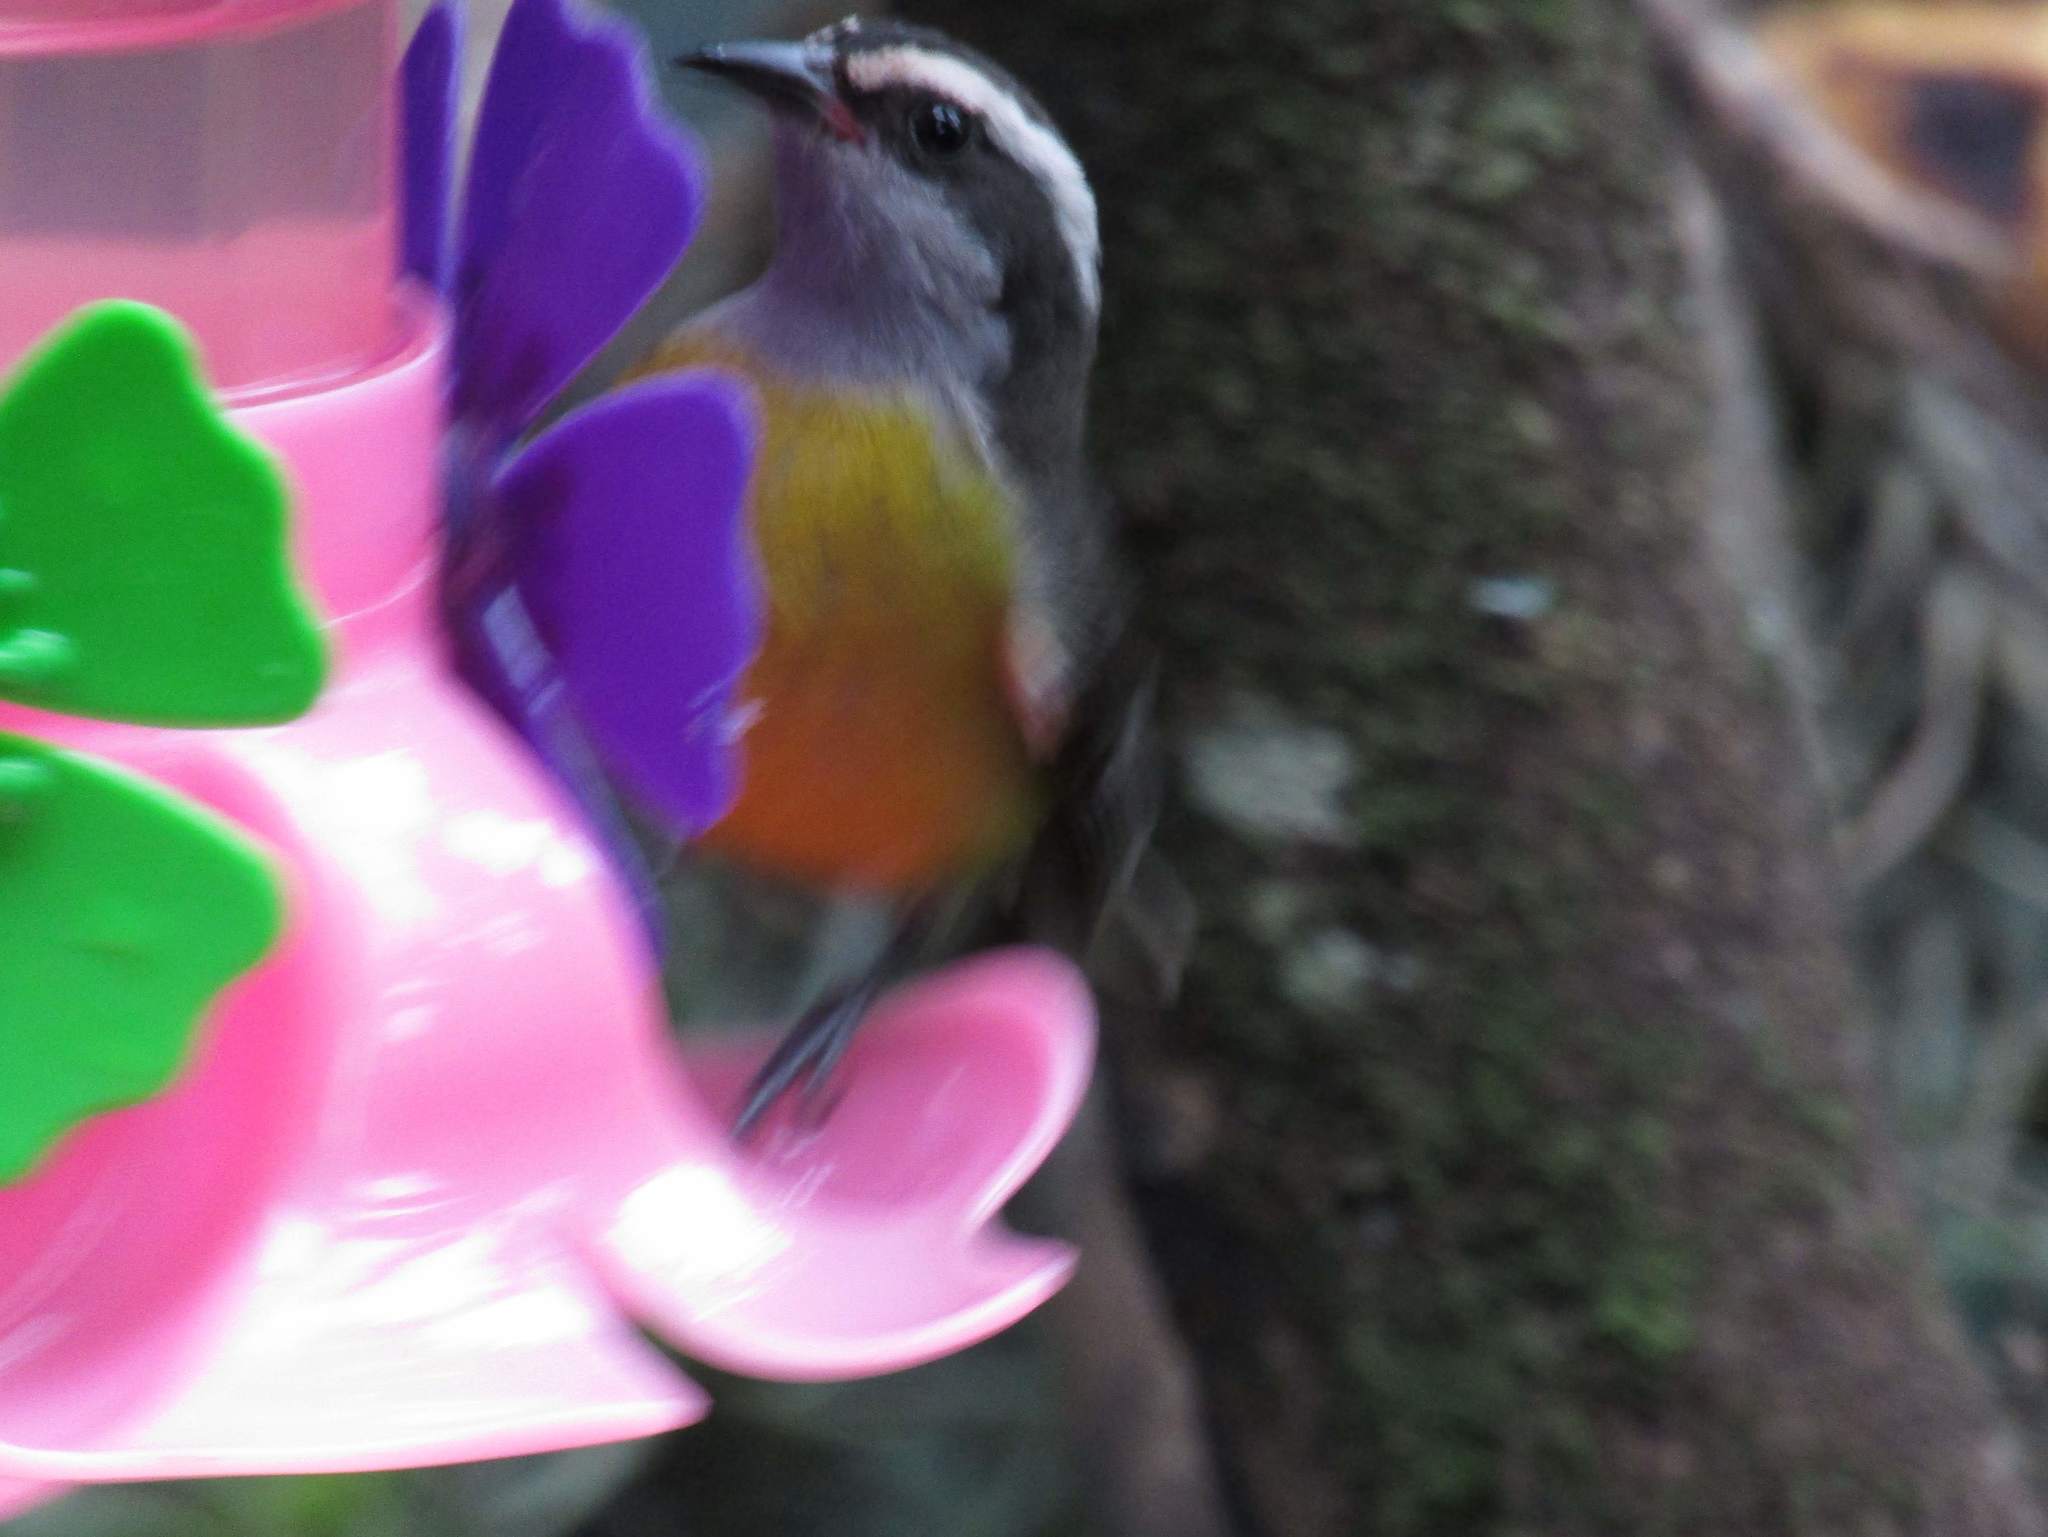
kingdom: Animalia
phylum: Chordata
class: Aves
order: Passeriformes
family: Thraupidae
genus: Coereba
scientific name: Coereba flaveola
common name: Bananaquit
